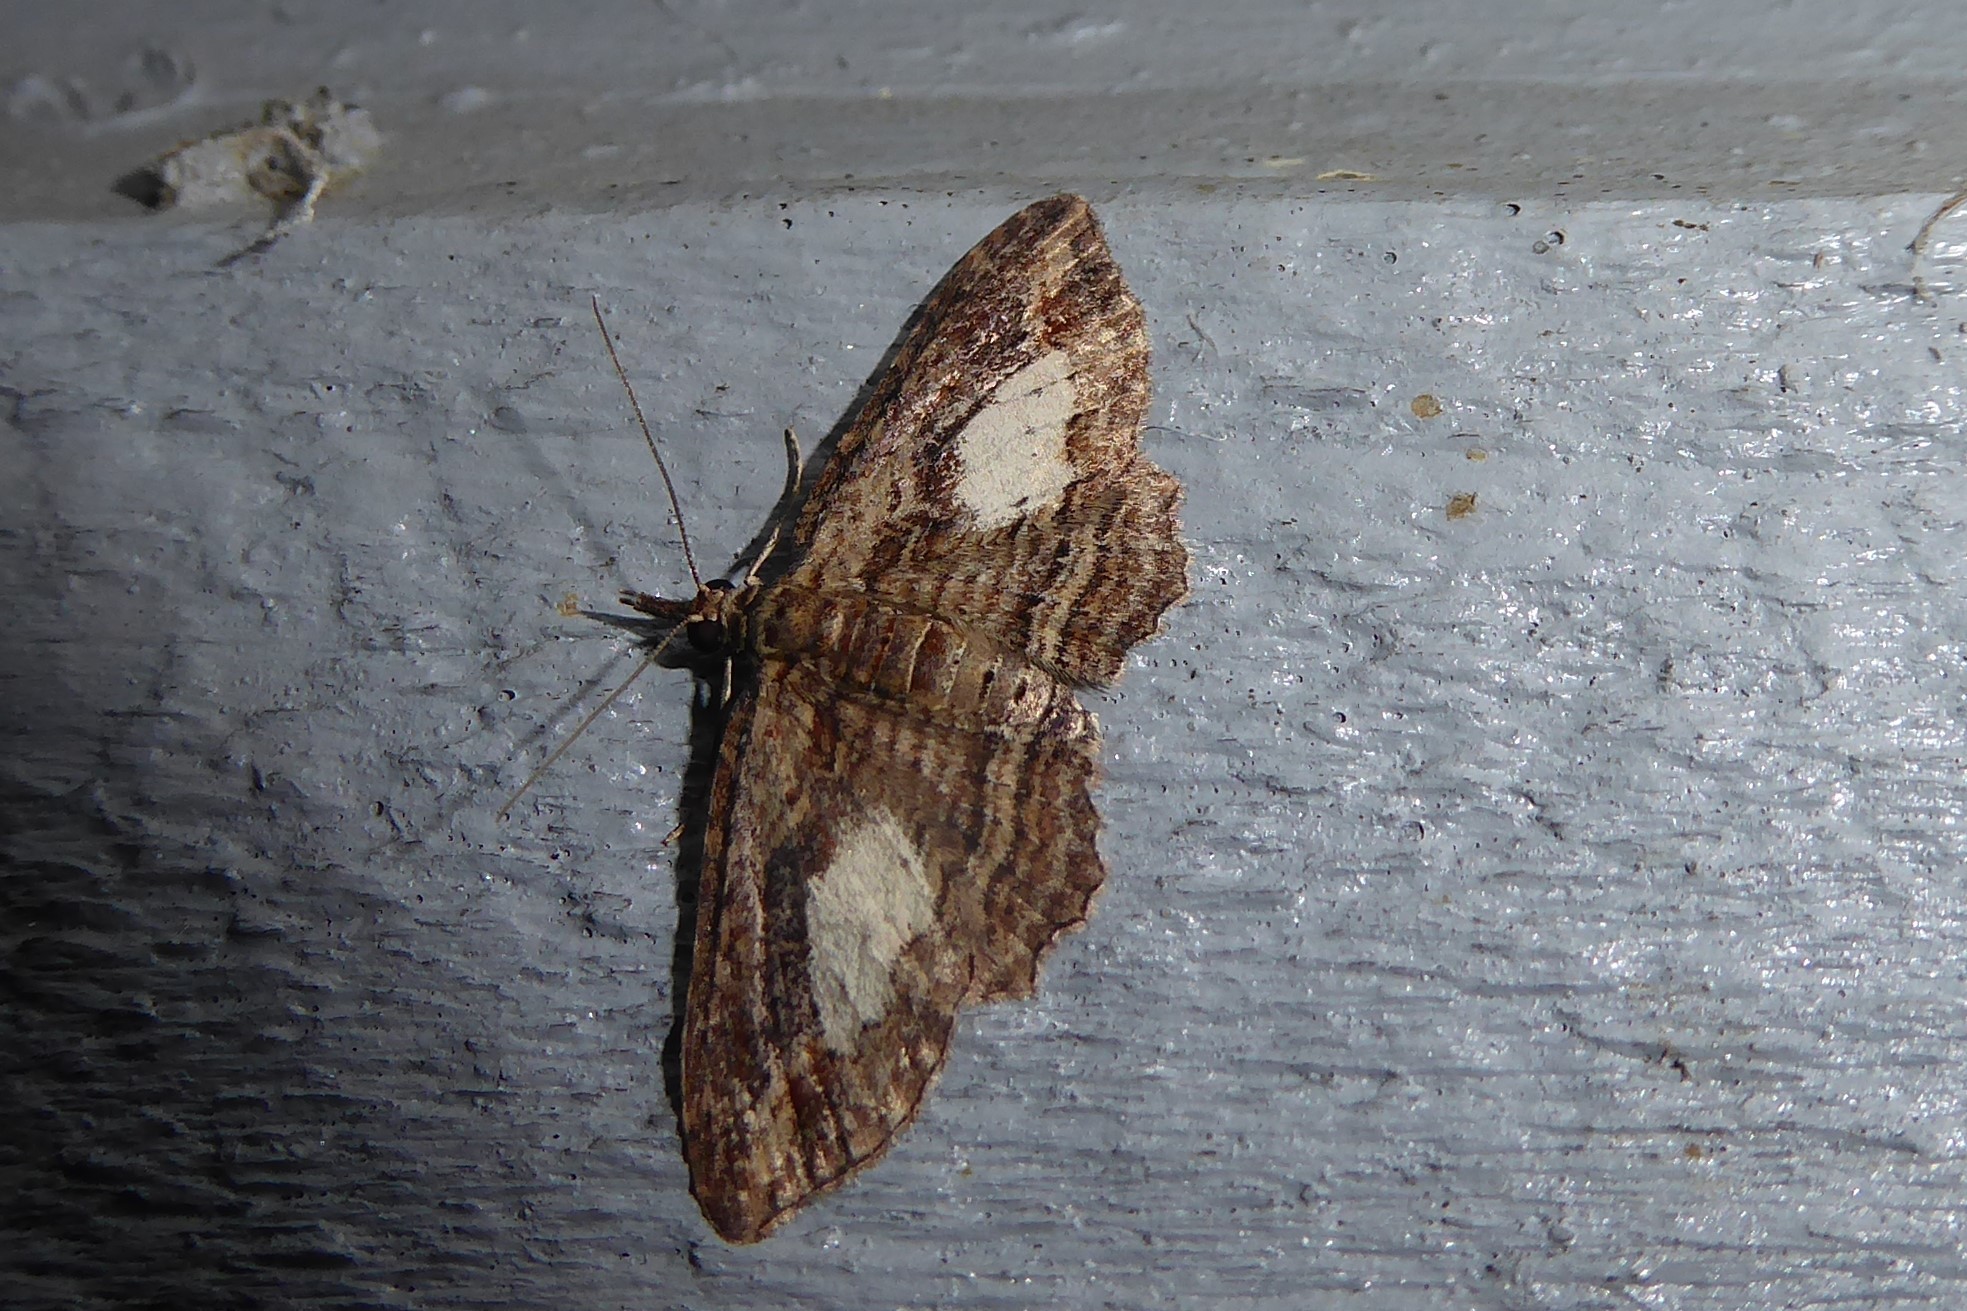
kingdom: Animalia
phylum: Arthropoda
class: Insecta
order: Lepidoptera
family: Geometridae
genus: Chloroclystis
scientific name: Chloroclystis filata
